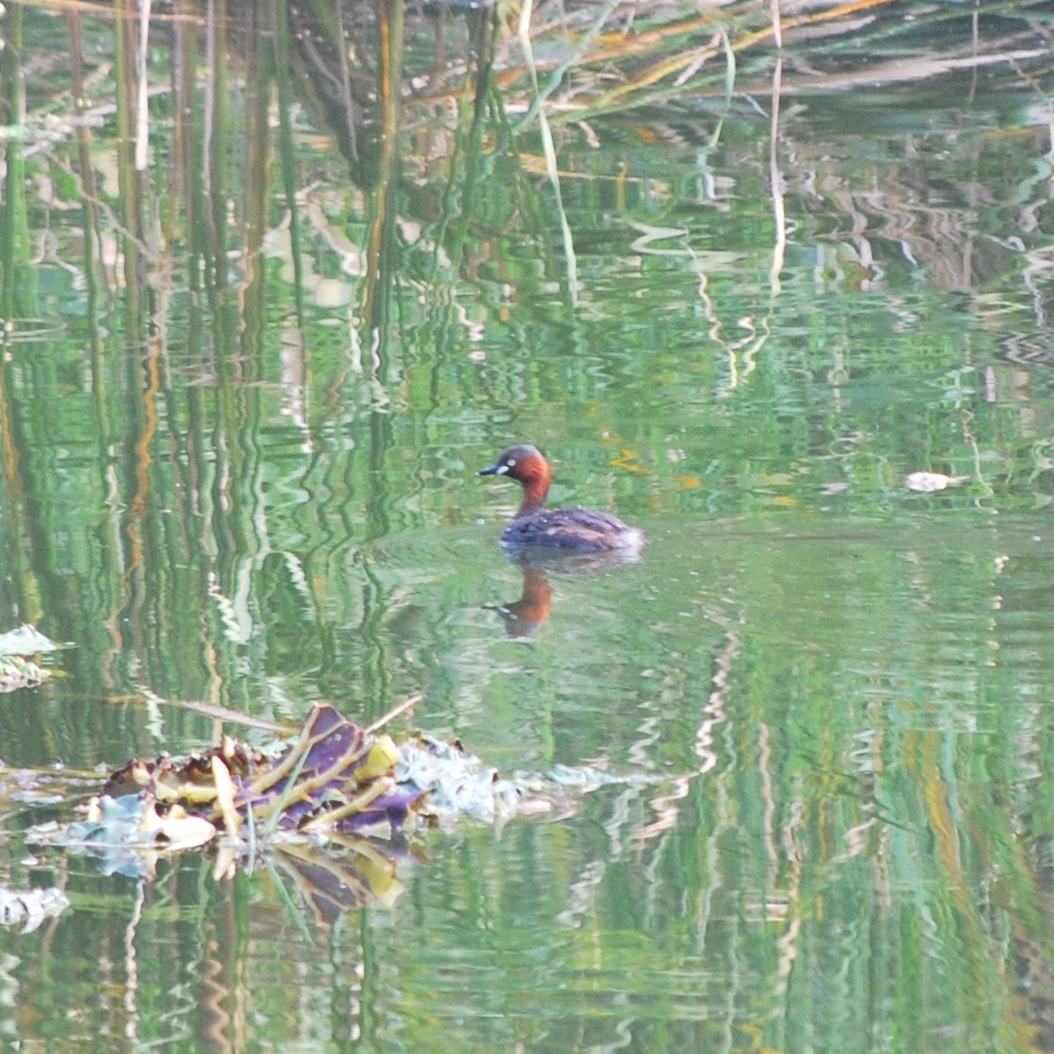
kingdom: Animalia
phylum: Chordata
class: Aves
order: Podicipediformes
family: Podicipedidae
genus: Tachybaptus
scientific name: Tachybaptus ruficollis
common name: Little grebe
